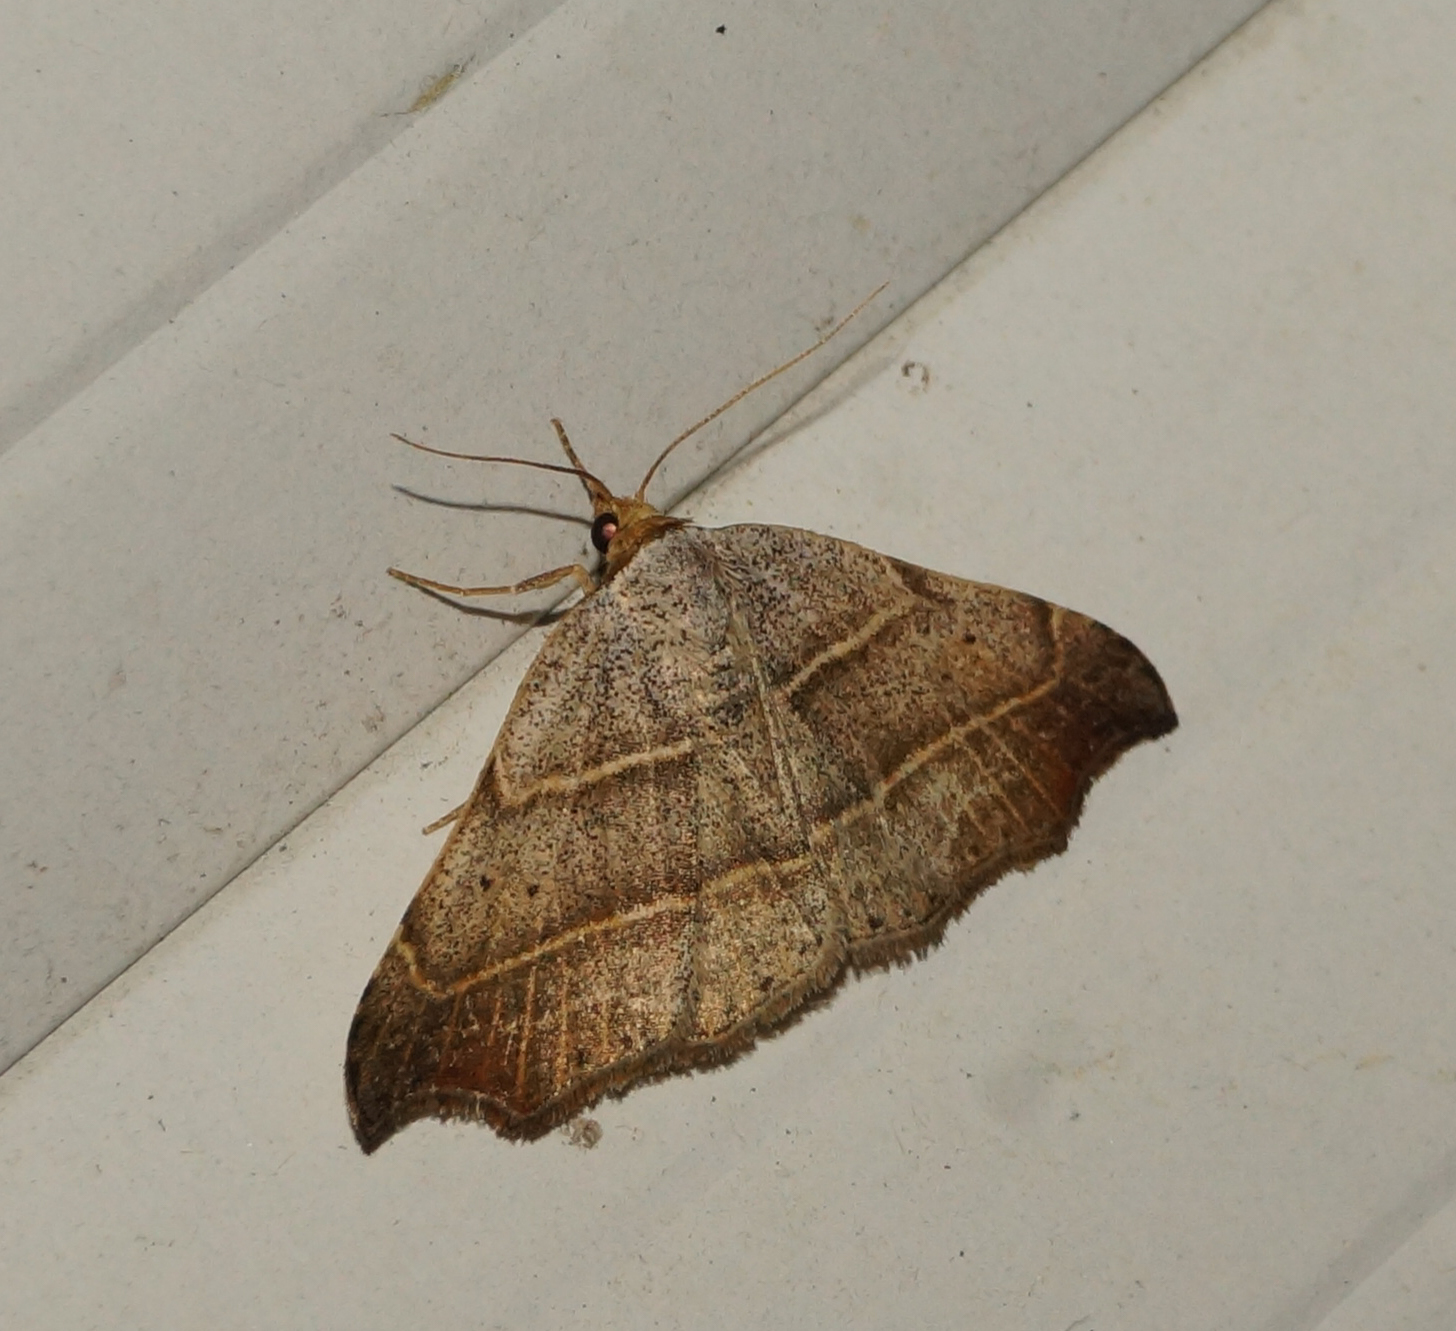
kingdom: Animalia
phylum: Arthropoda
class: Insecta
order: Lepidoptera
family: Erebidae
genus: Laspeyria
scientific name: Laspeyria flexula
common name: Beautiful hook-tip
